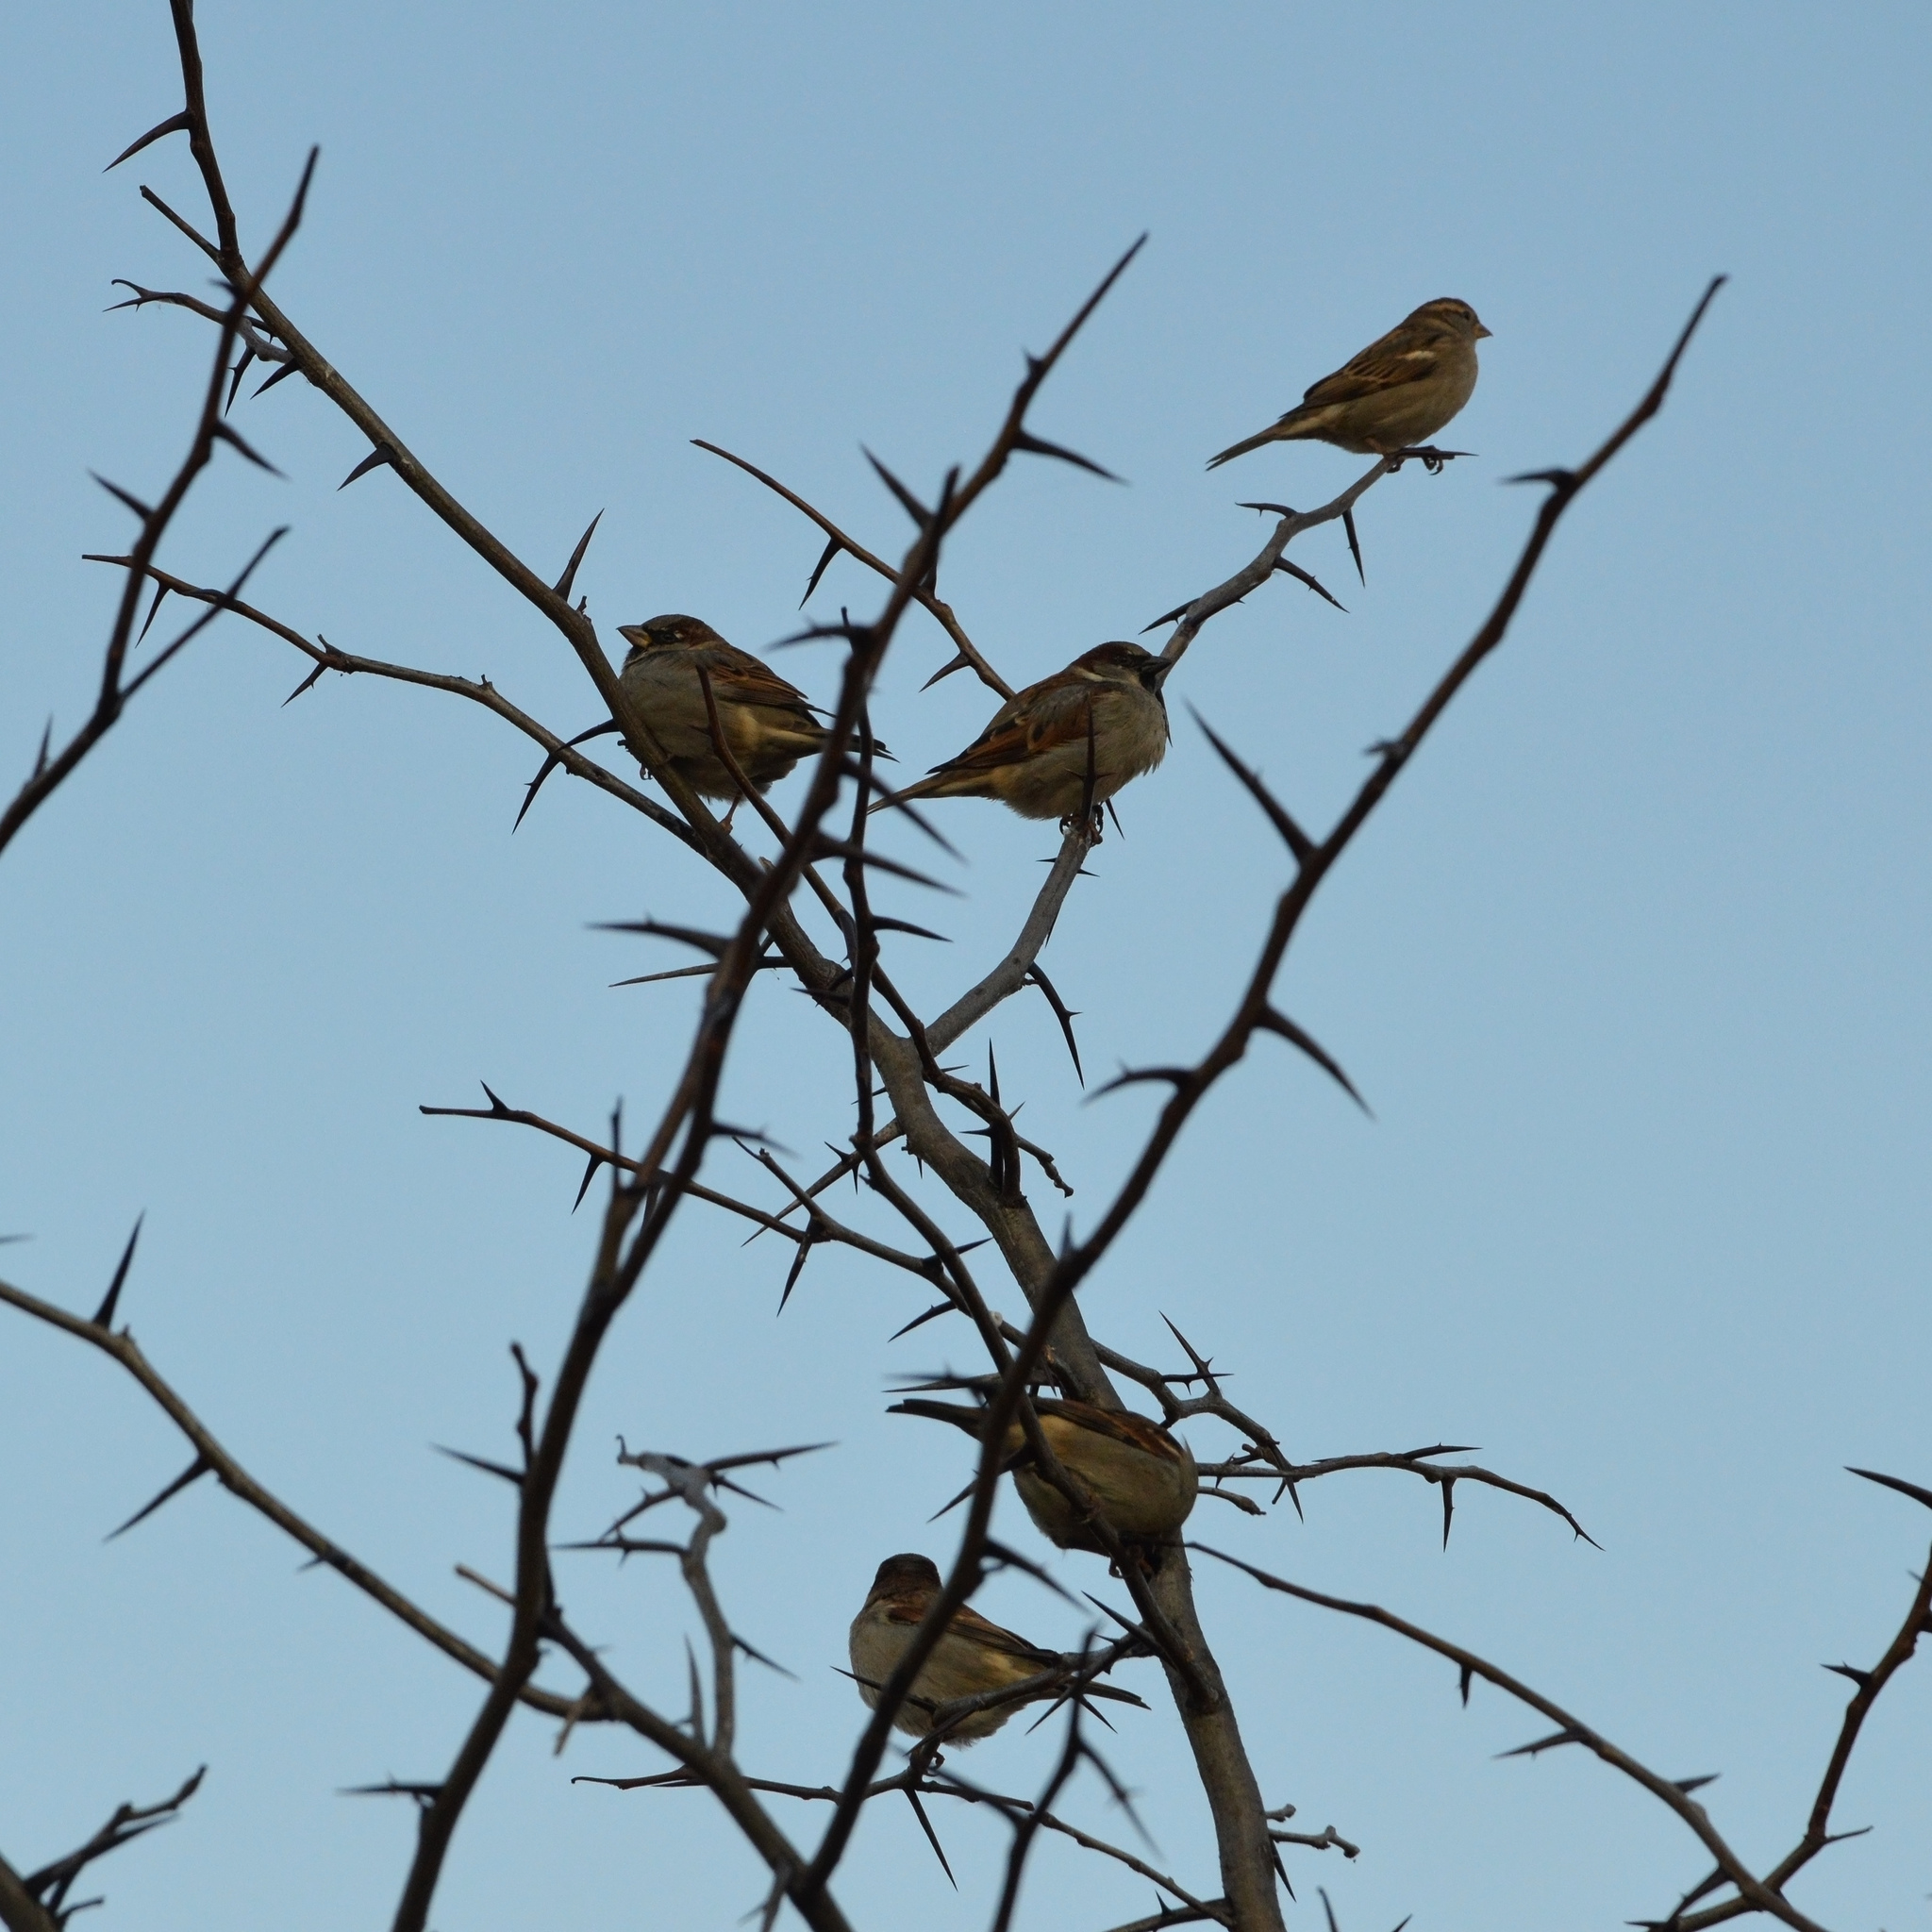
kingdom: Animalia
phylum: Chordata
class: Aves
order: Passeriformes
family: Passeridae
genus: Passer
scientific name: Passer domesticus
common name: House sparrow
